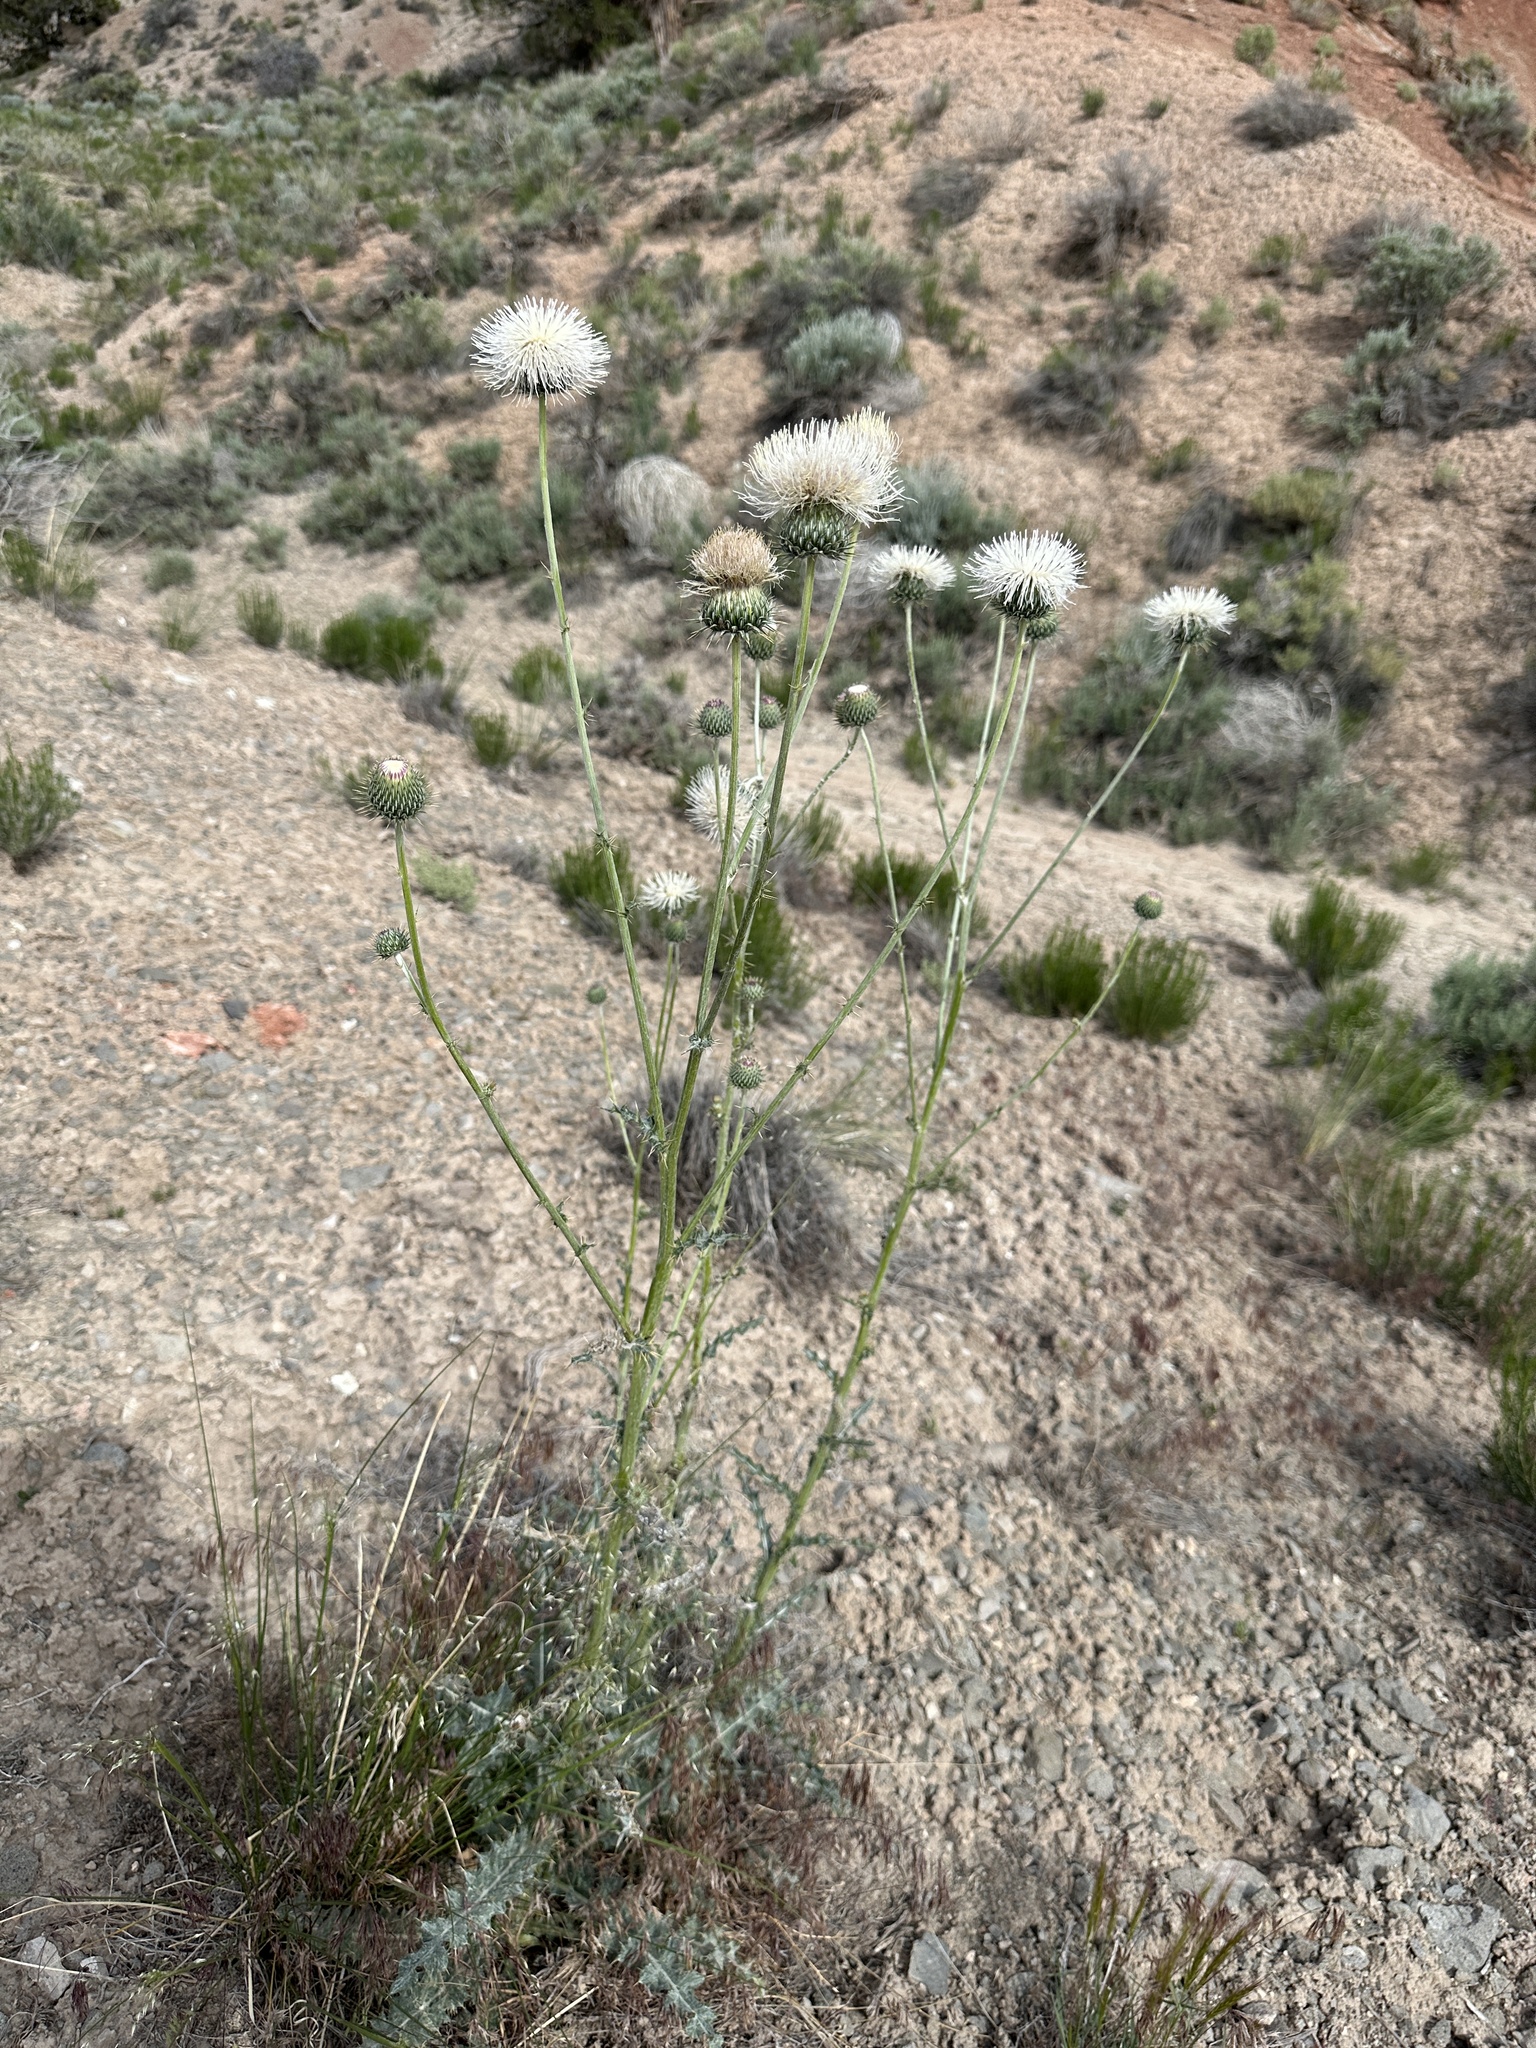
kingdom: Plantae
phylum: Tracheophyta
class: Magnoliopsida
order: Asterales
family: Asteraceae
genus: Cirsium
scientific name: Cirsium neomexicanum
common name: New mexico thistle
